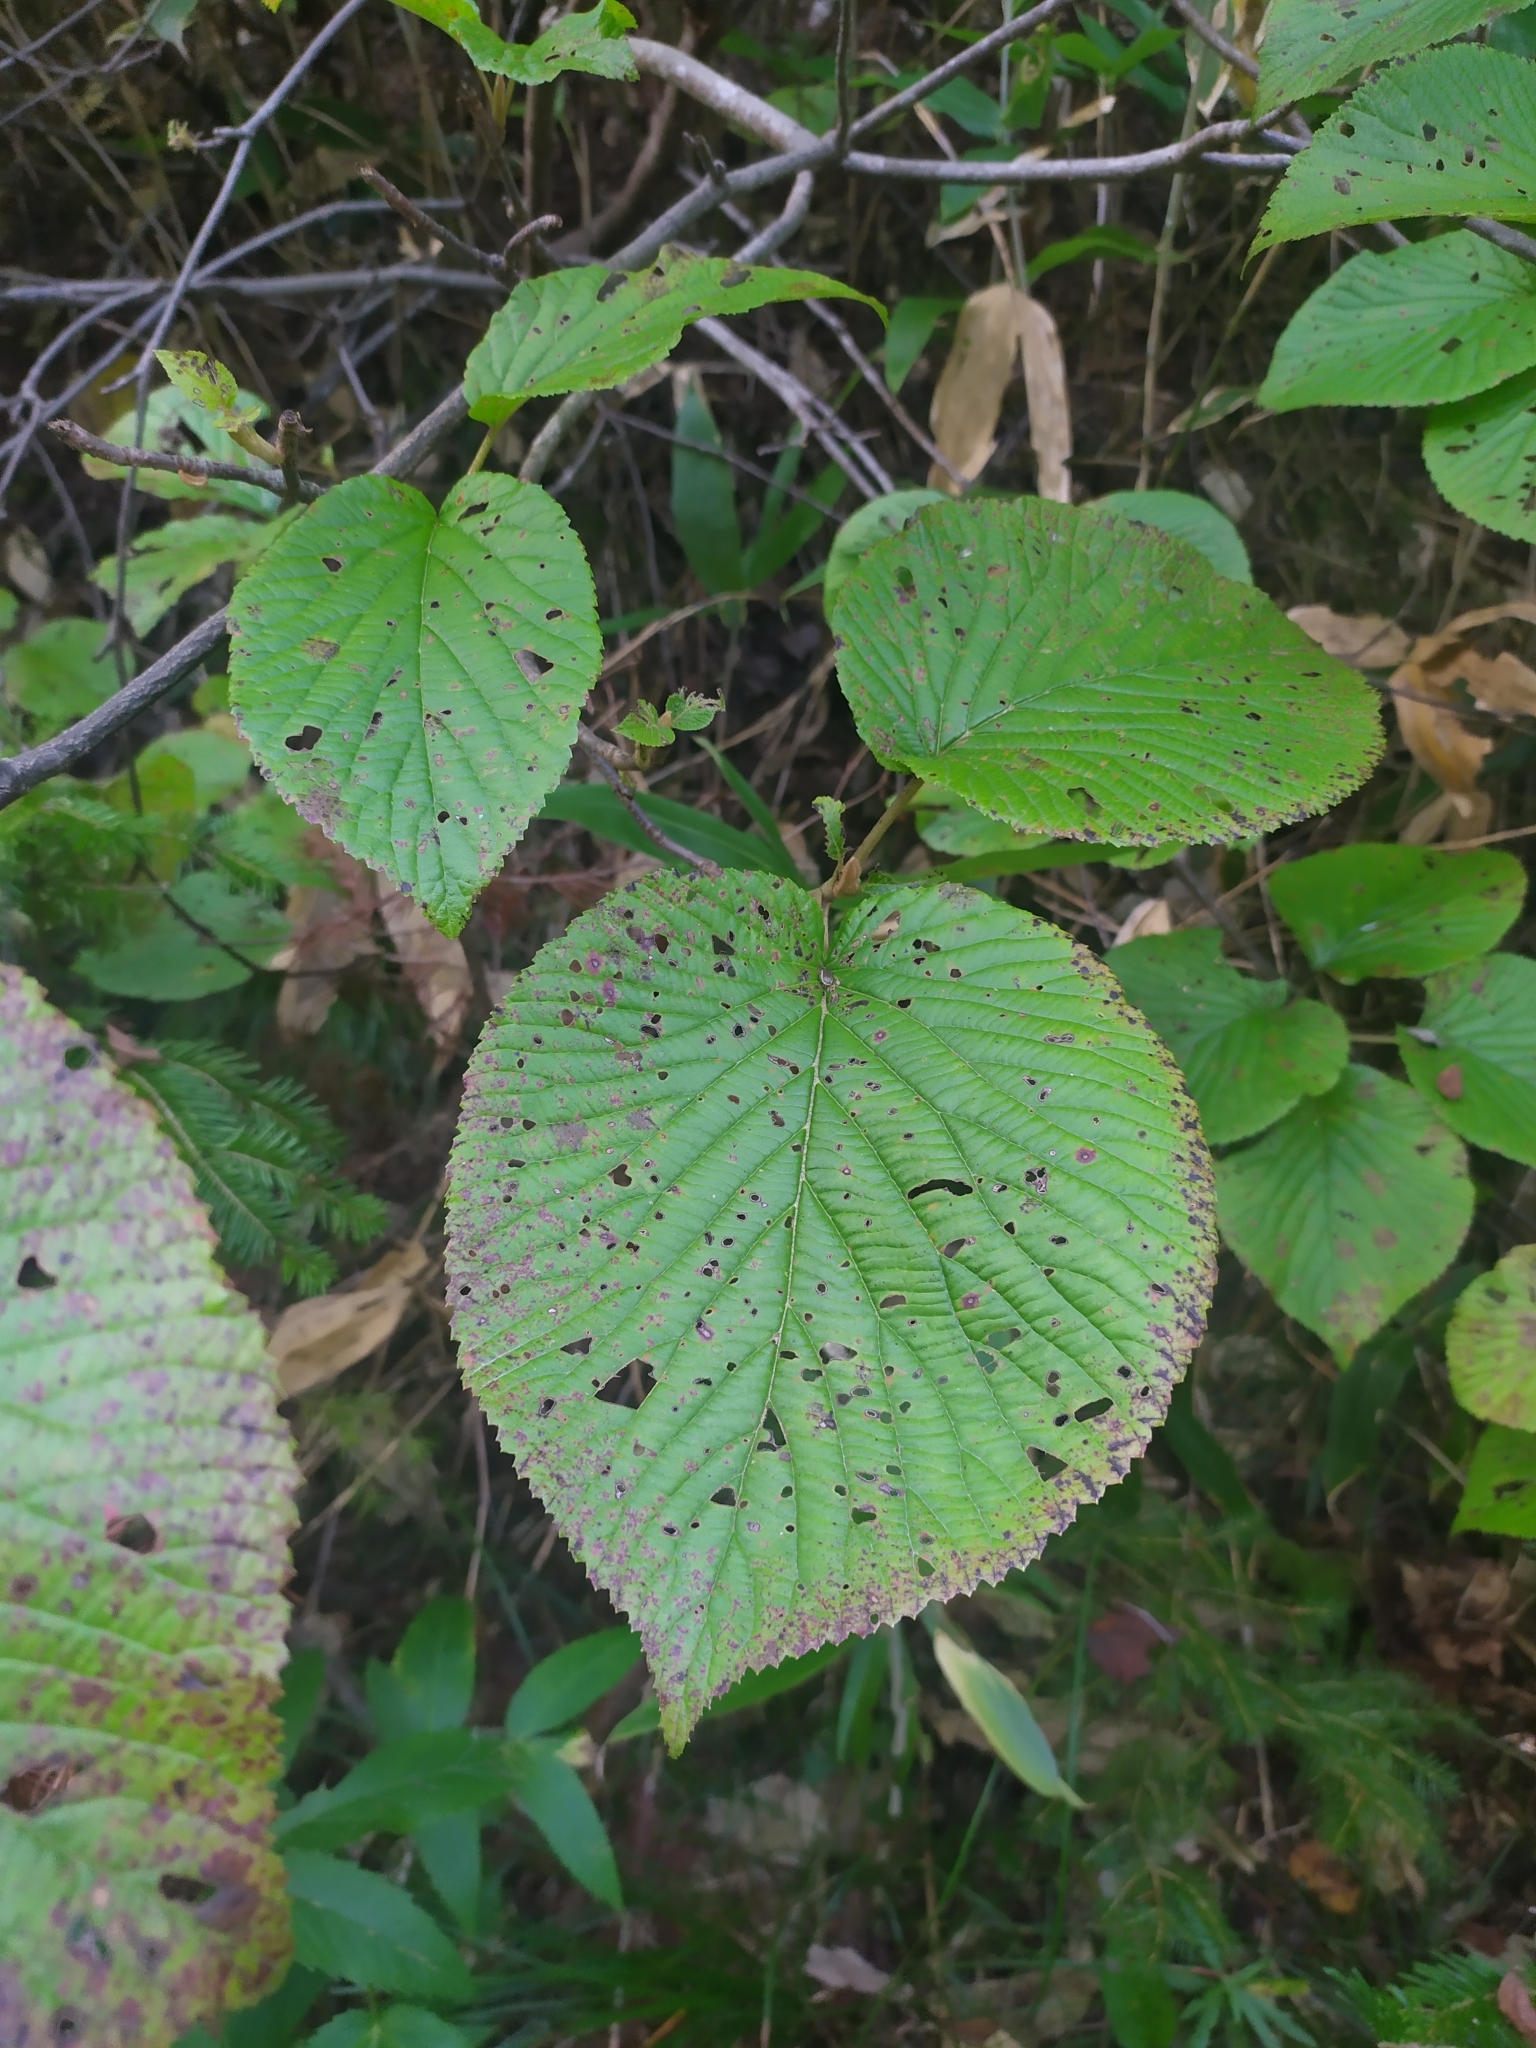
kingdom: Plantae
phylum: Tracheophyta
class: Magnoliopsida
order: Dipsacales
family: Viburnaceae
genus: Viburnum
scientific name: Viburnum furcatum
